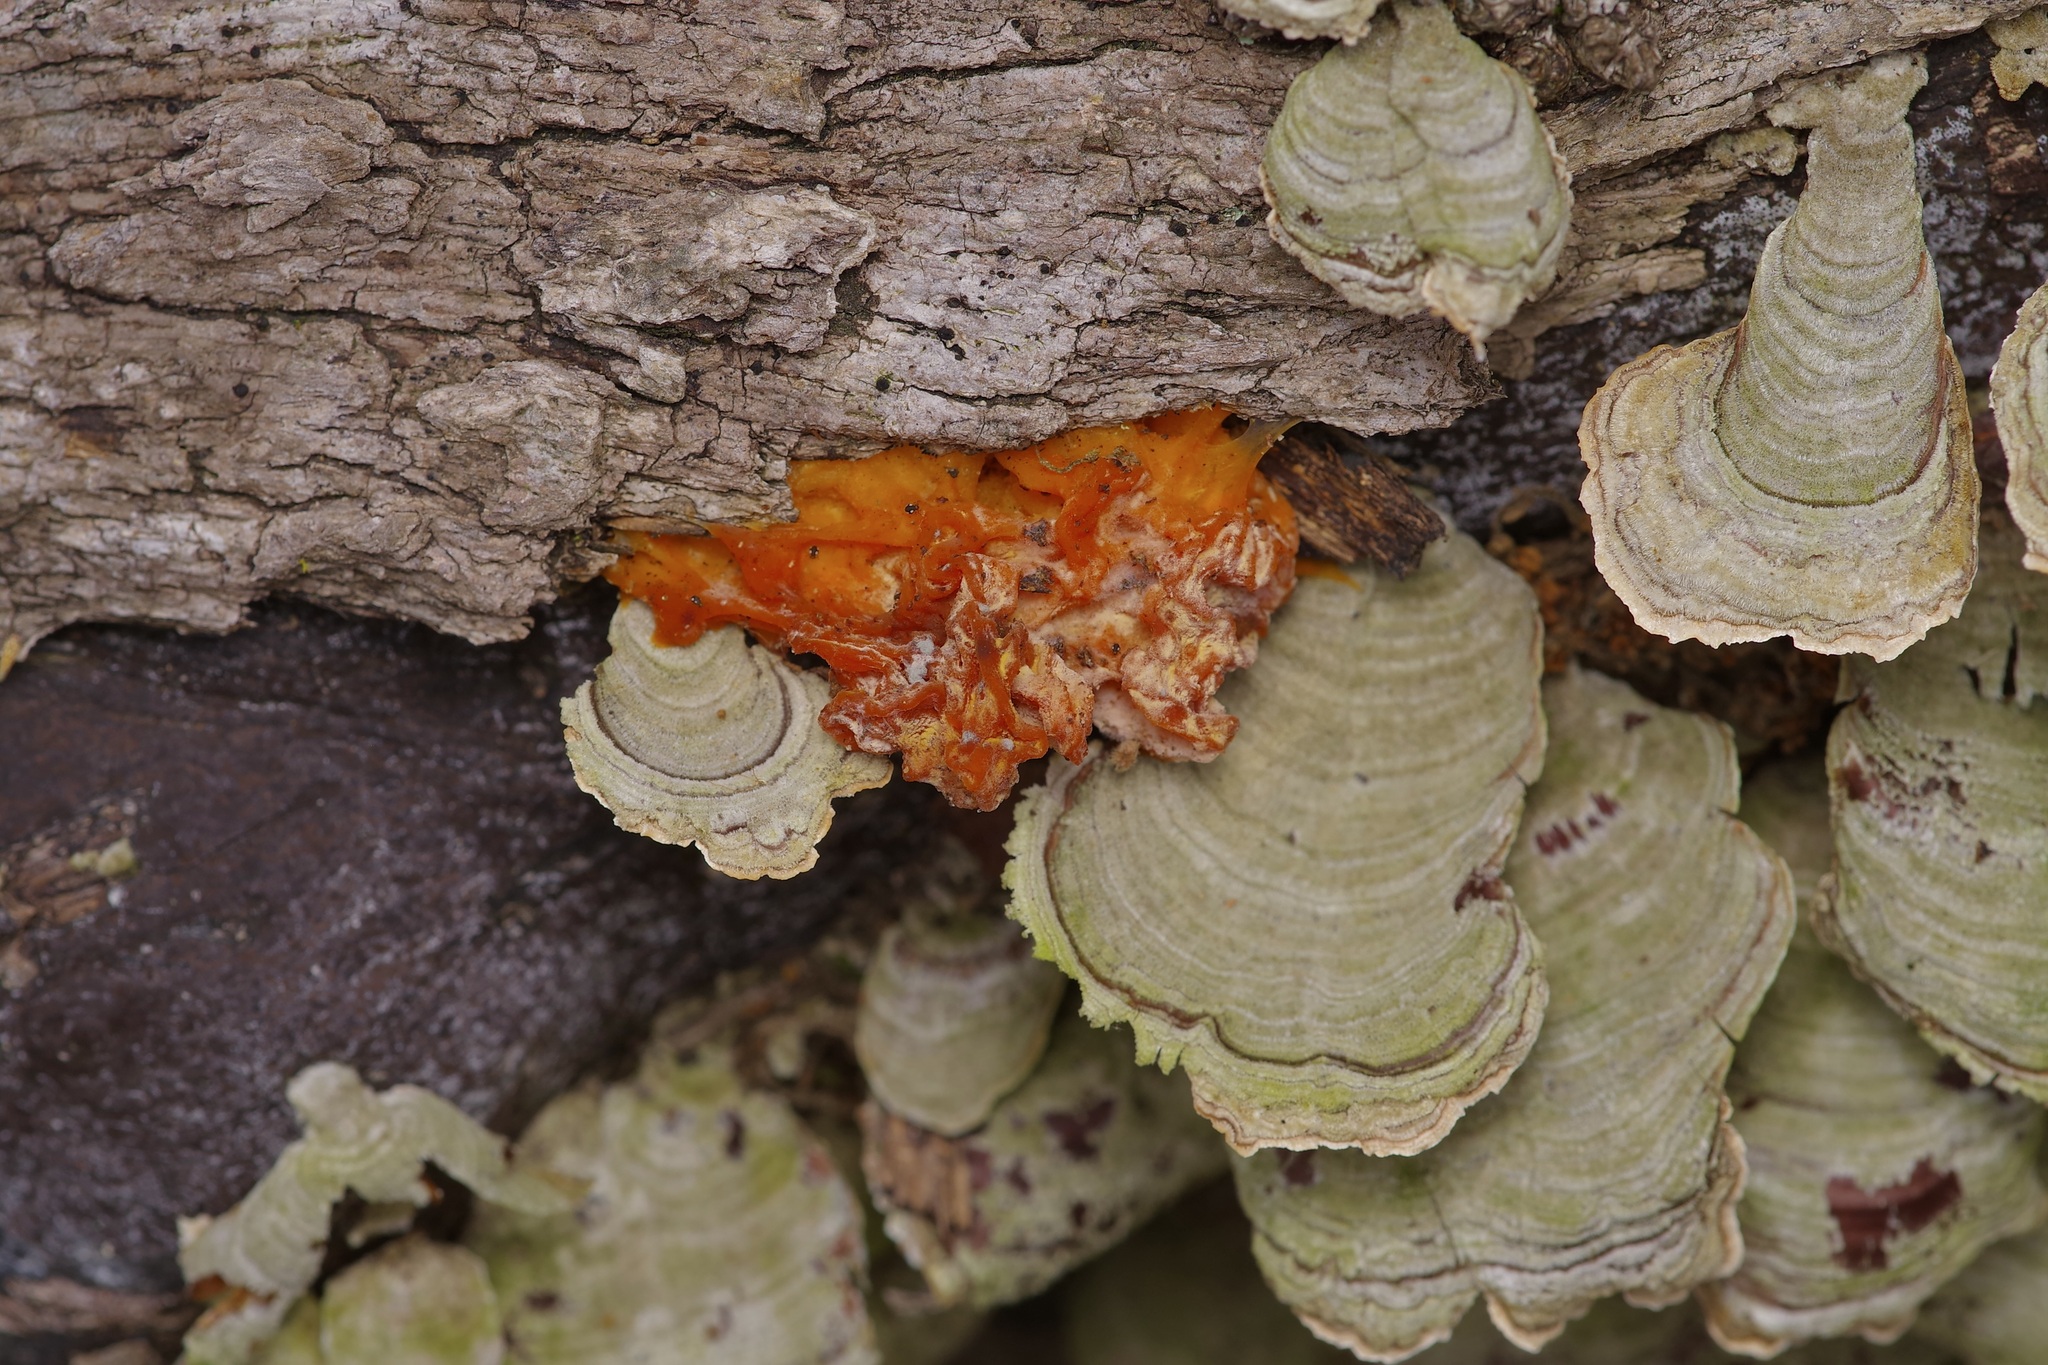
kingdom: Fungi
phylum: Basidiomycota
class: Tremellomycetes
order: Tremellales
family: Naemateliaceae
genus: Naematelia
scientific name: Naematelia aurantia
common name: Golden ear
